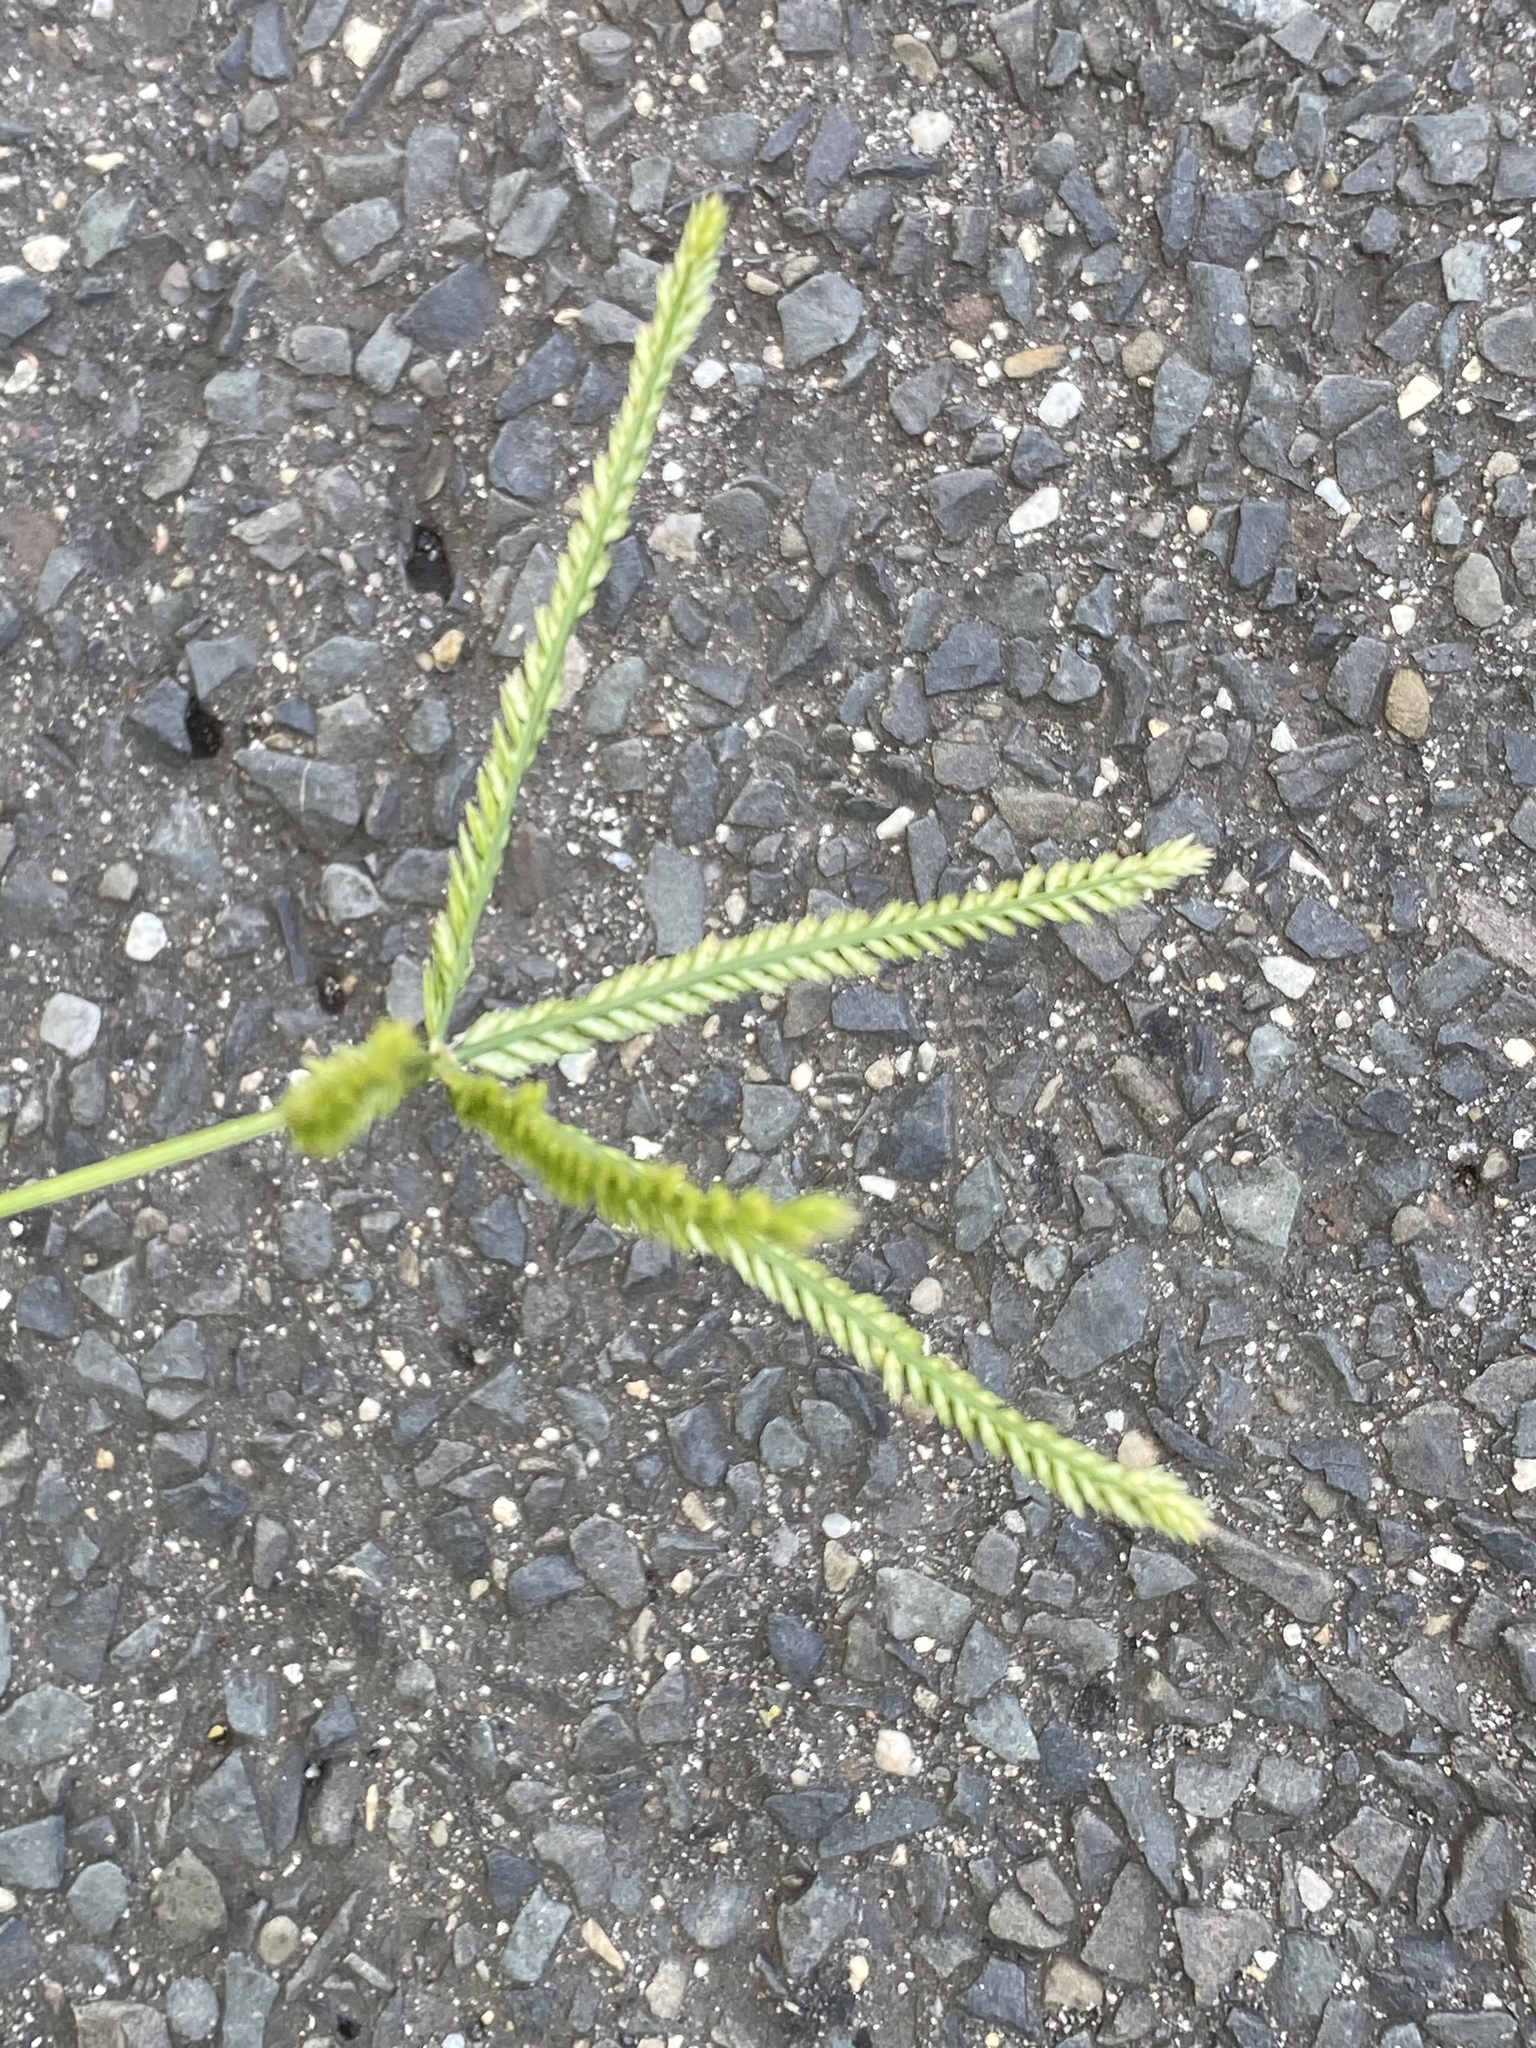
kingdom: Plantae
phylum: Tracheophyta
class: Liliopsida
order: Poales
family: Poaceae
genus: Eleusine
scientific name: Eleusine indica
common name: Yard-grass
